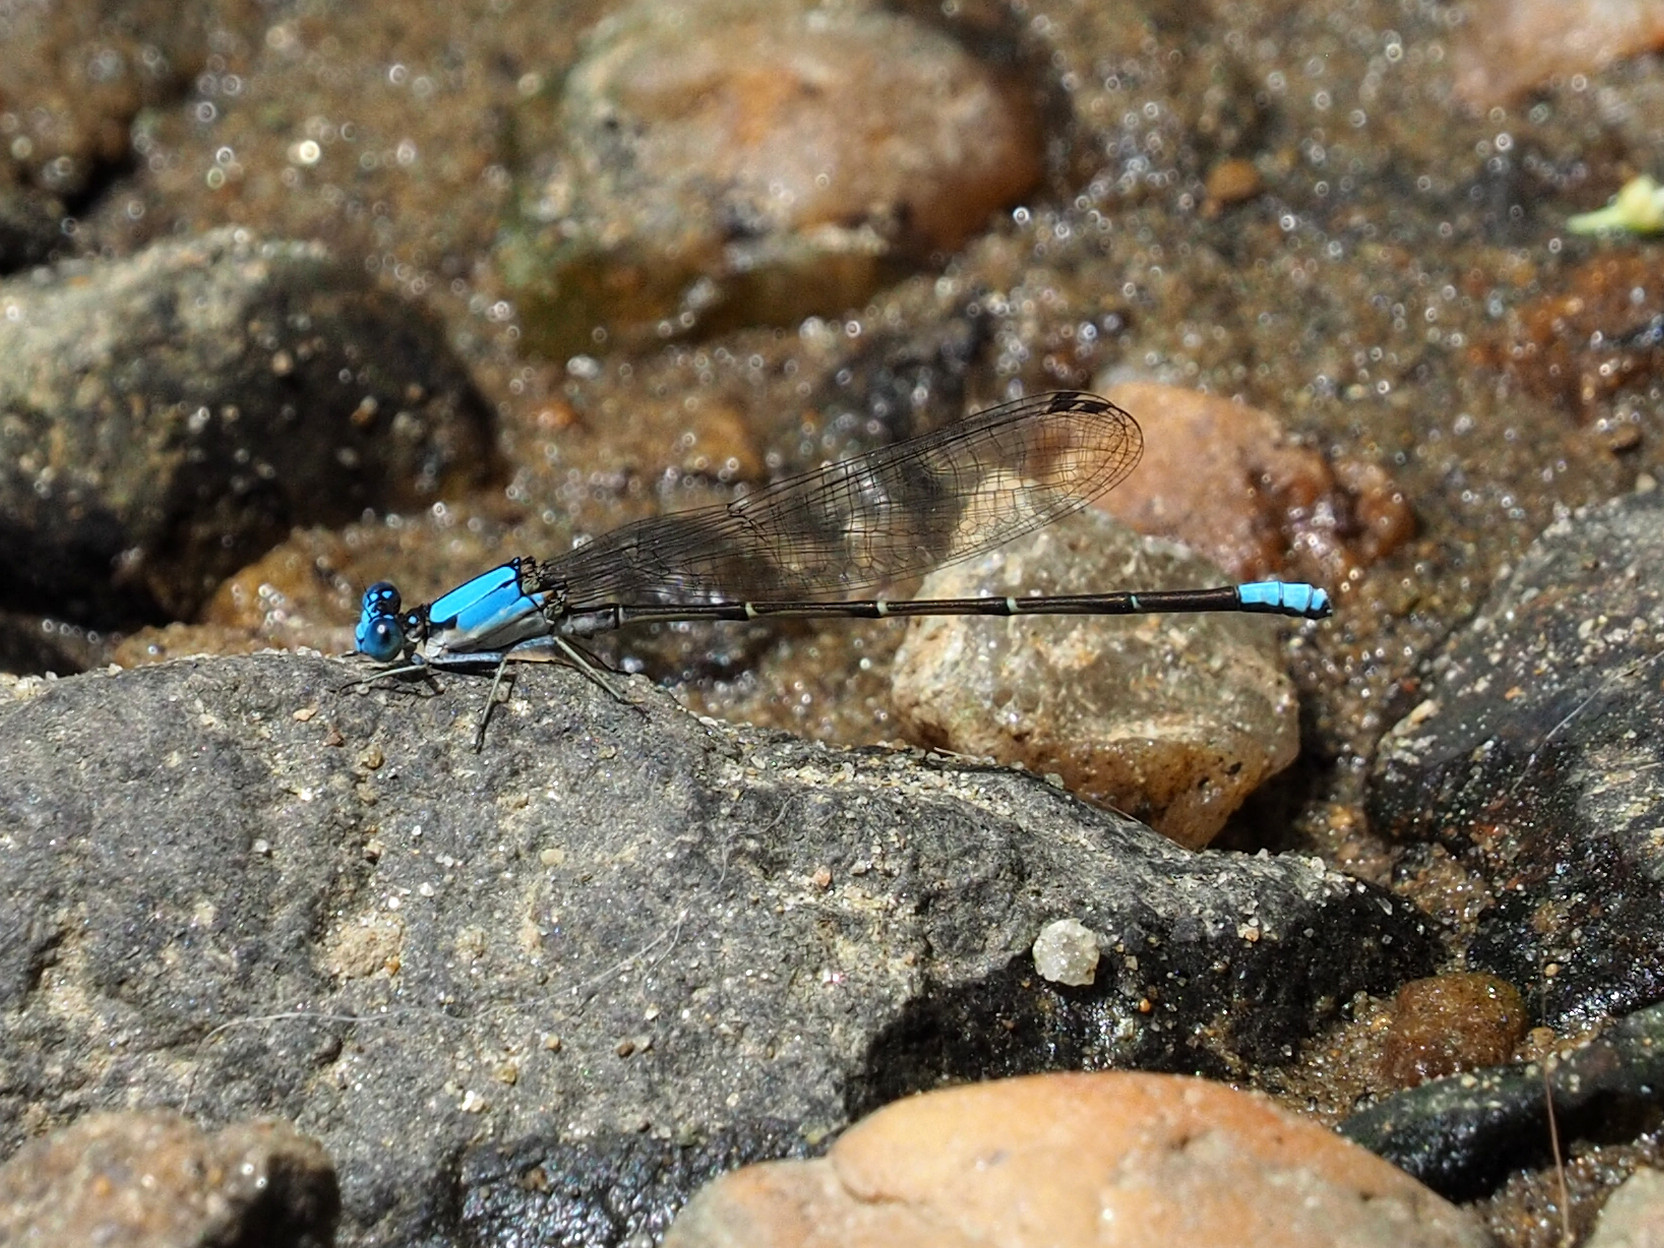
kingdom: Animalia
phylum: Arthropoda
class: Insecta
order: Odonata
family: Coenagrionidae
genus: Argia
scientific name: Argia apicalis
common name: Blue-fronted dancer
